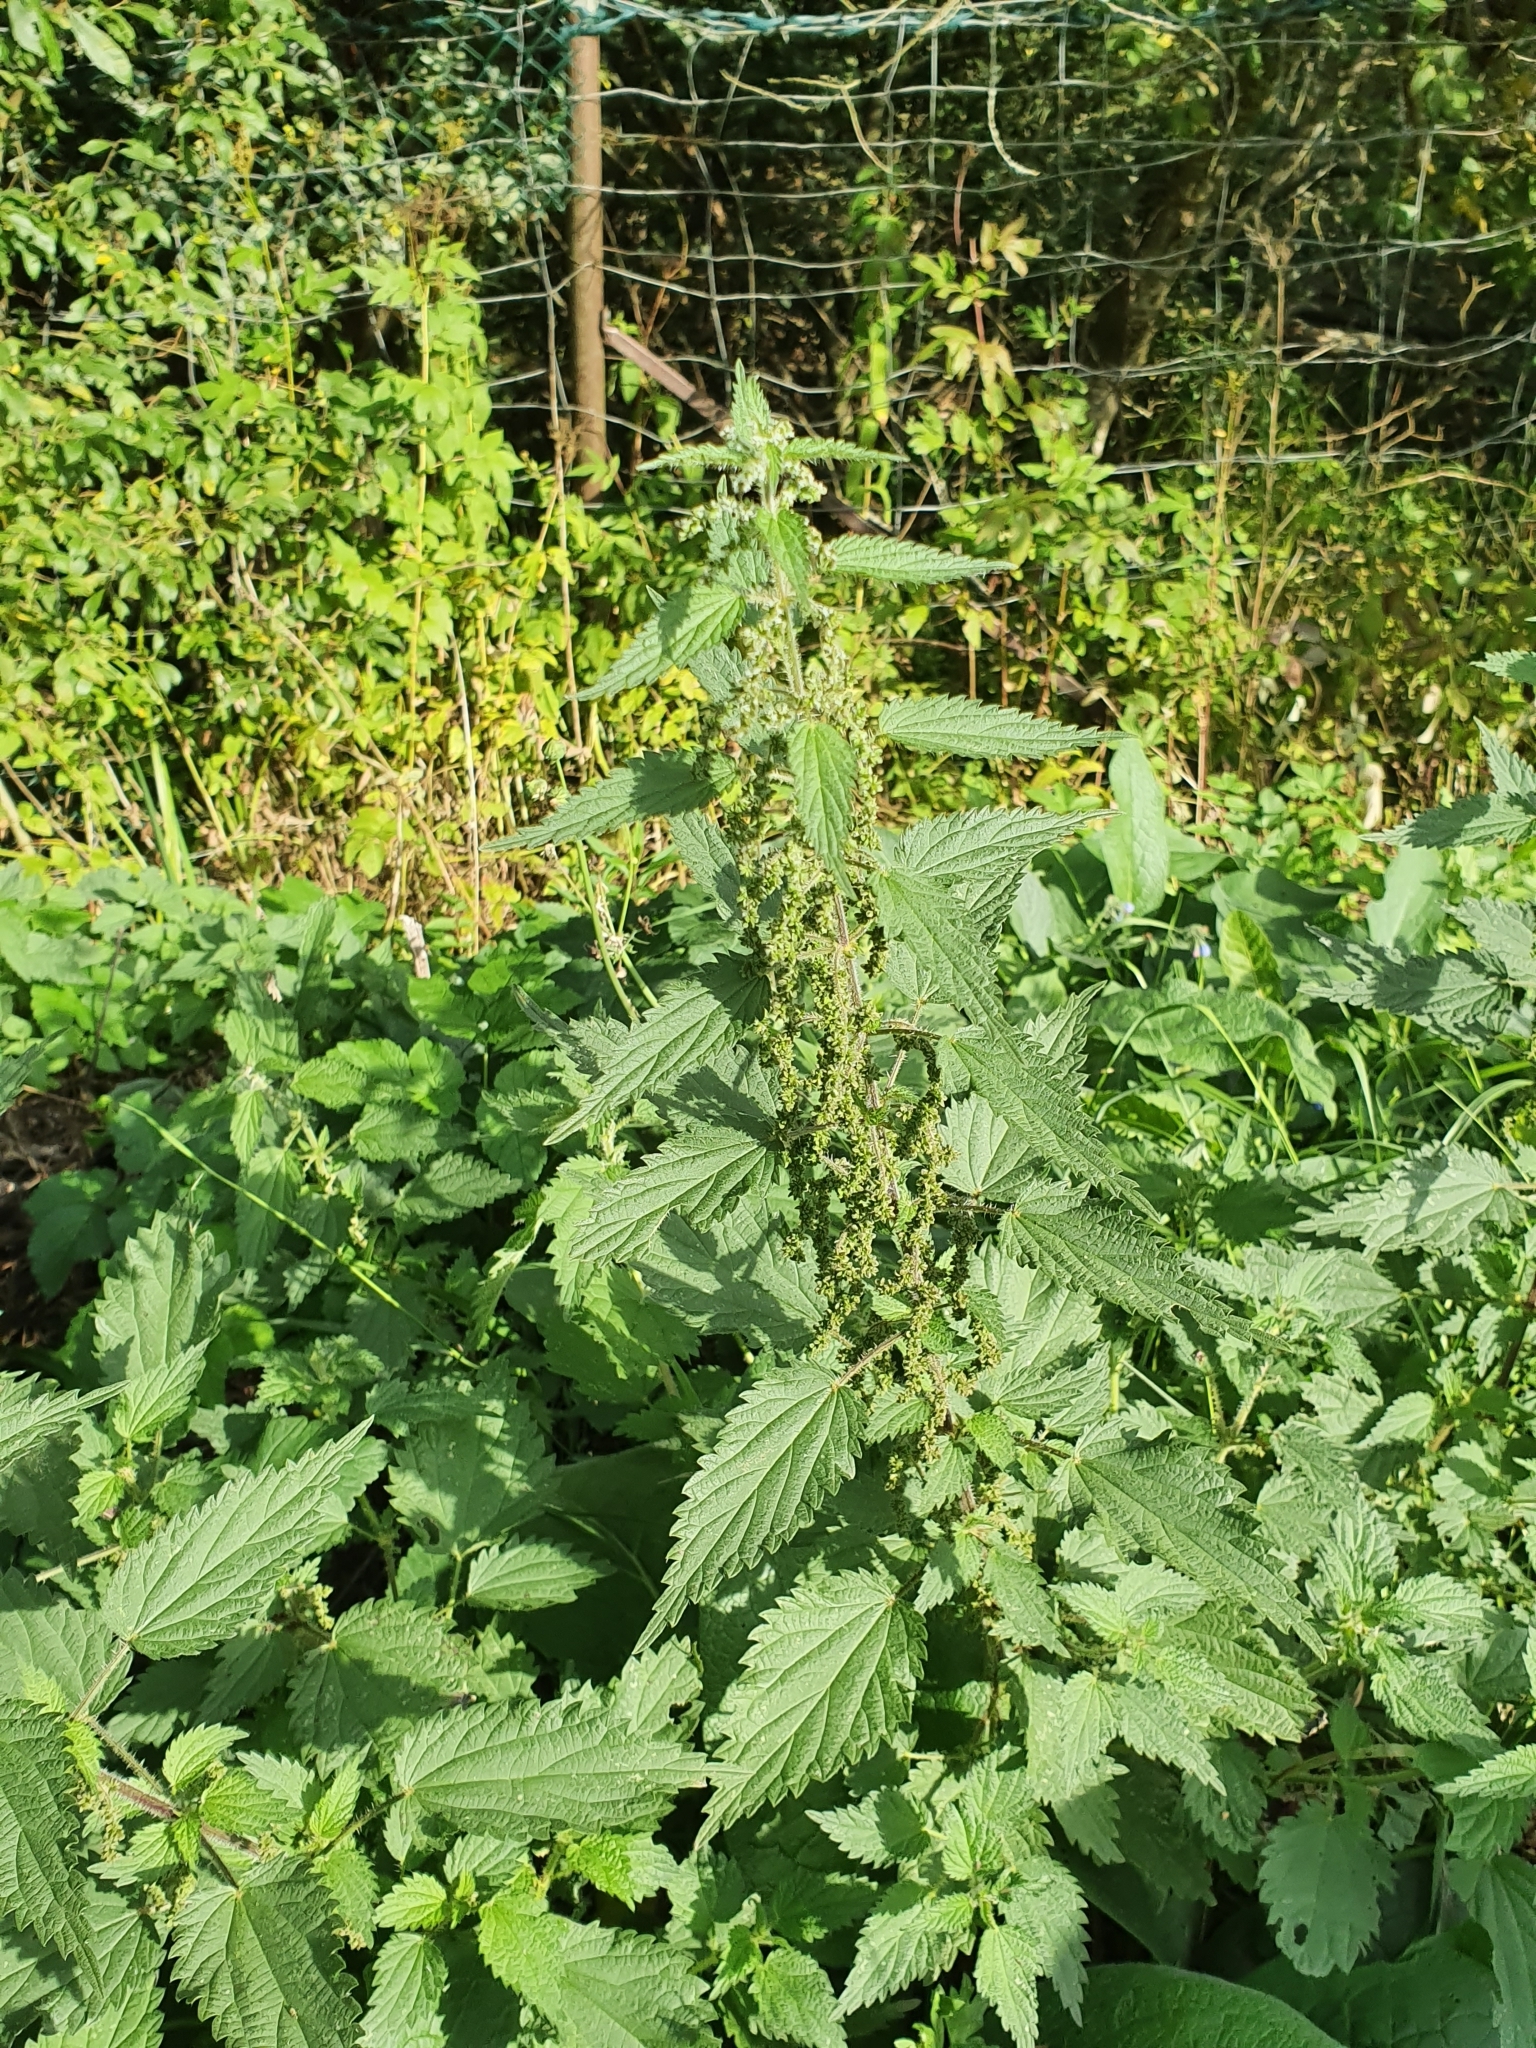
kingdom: Plantae
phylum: Tracheophyta
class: Magnoliopsida
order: Rosales
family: Urticaceae
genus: Urtica
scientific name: Urtica dioica
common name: Common nettle
